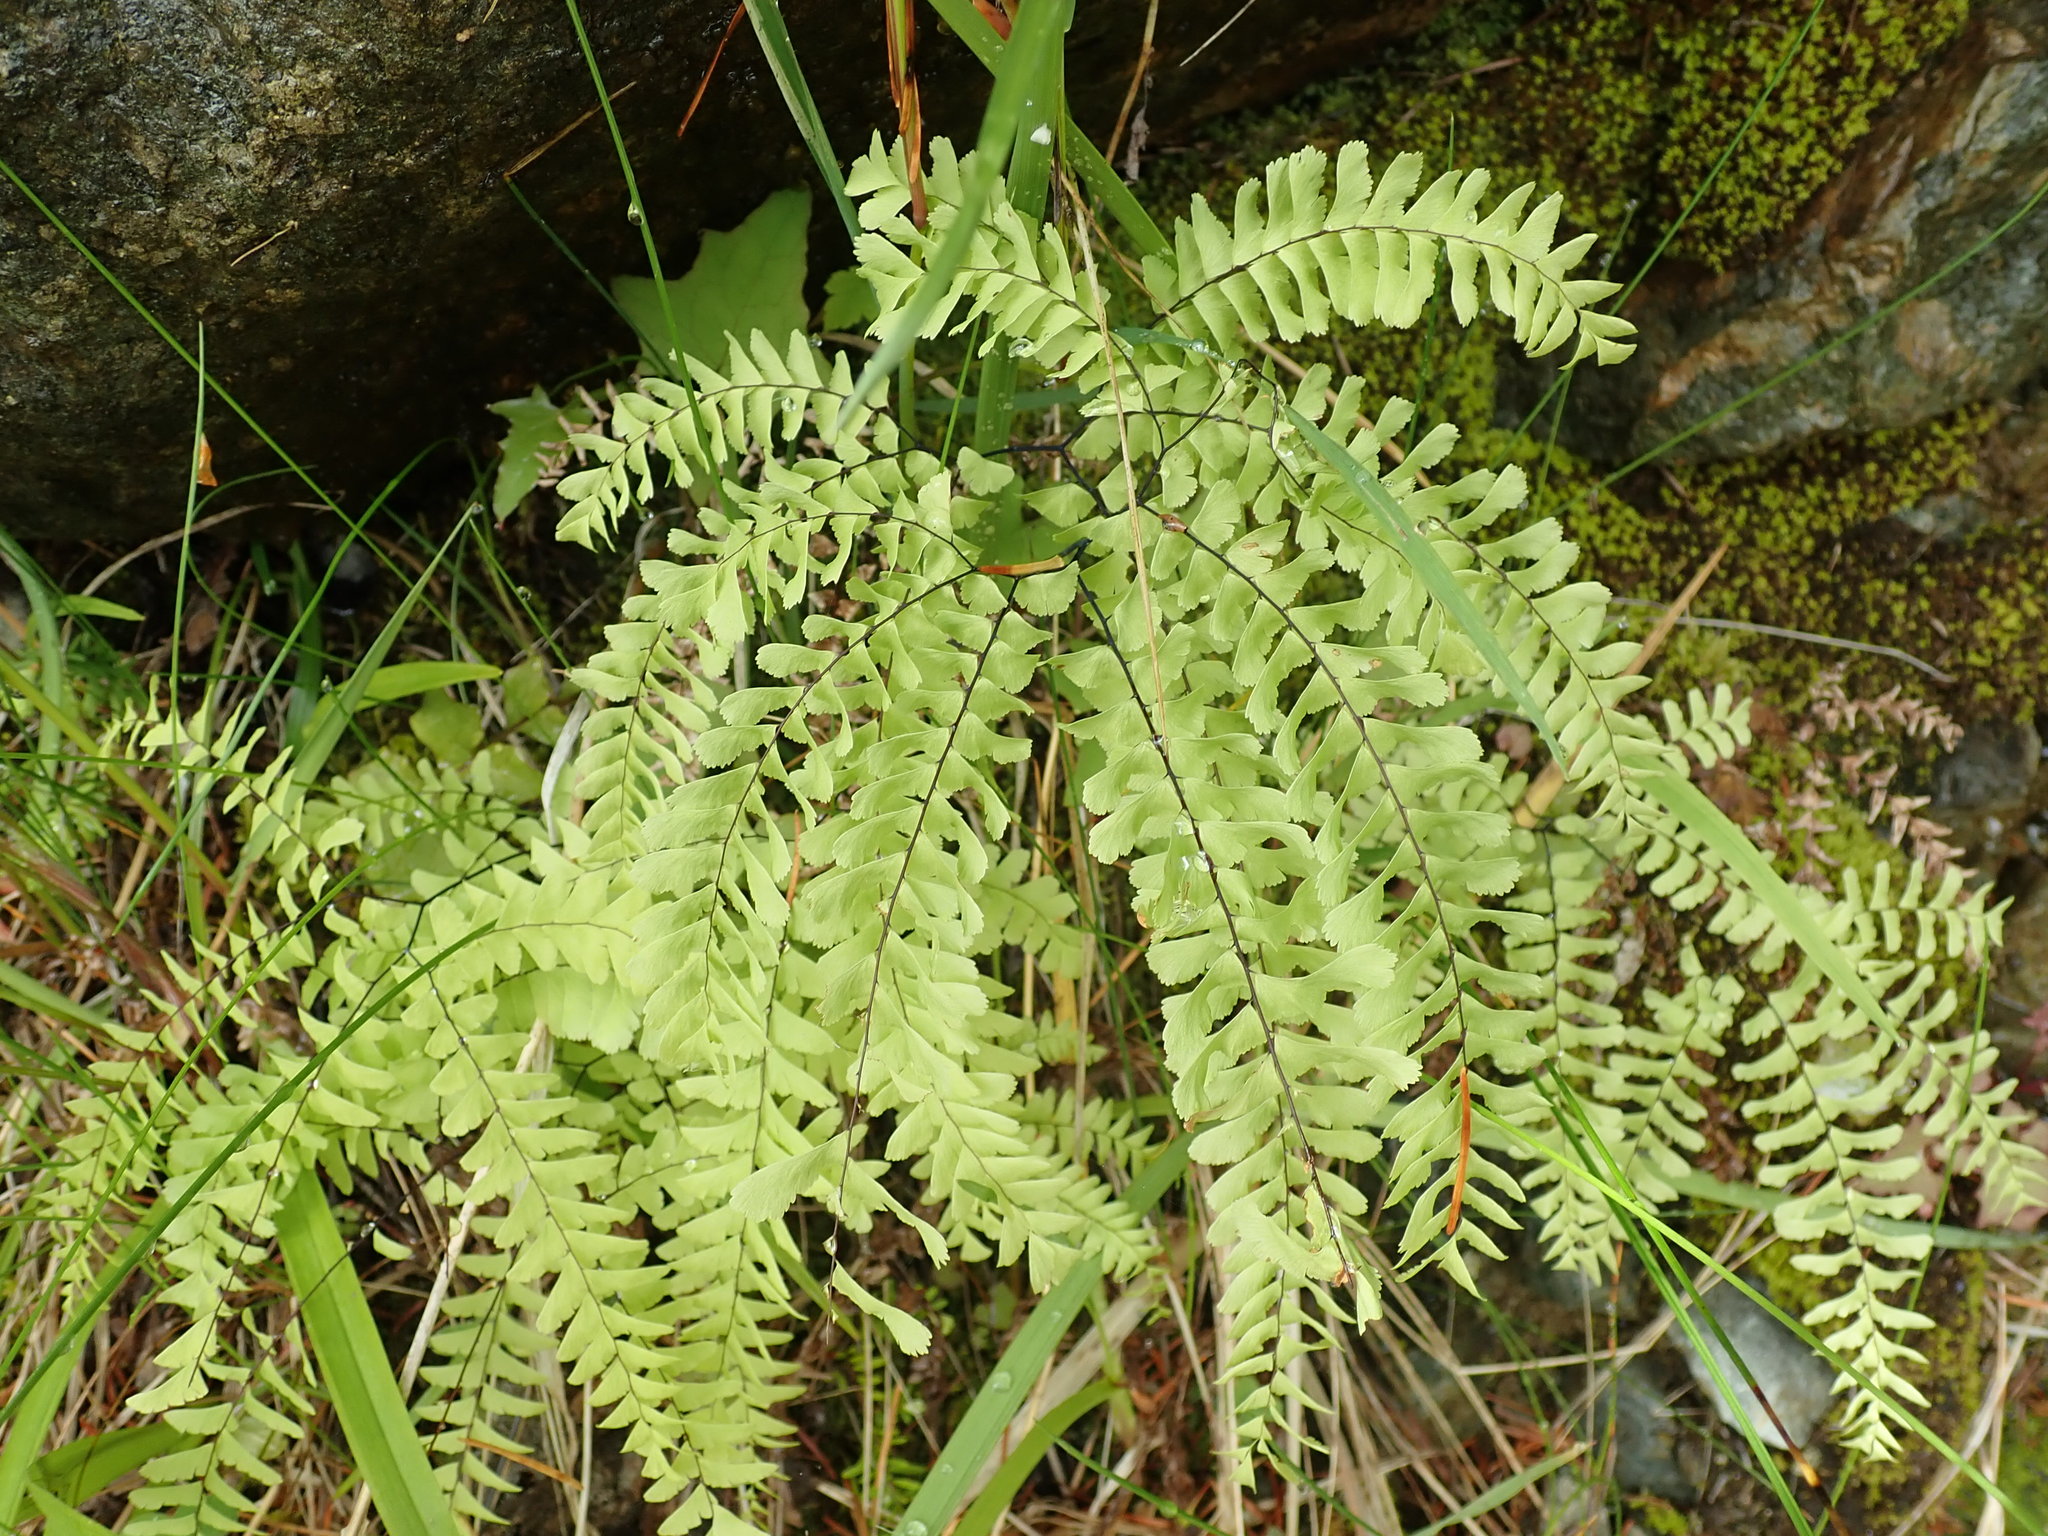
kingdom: Plantae
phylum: Tracheophyta
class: Polypodiopsida
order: Polypodiales
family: Pteridaceae
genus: Adiantum
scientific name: Adiantum aleuticum
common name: Aleutian maidenhair fern
